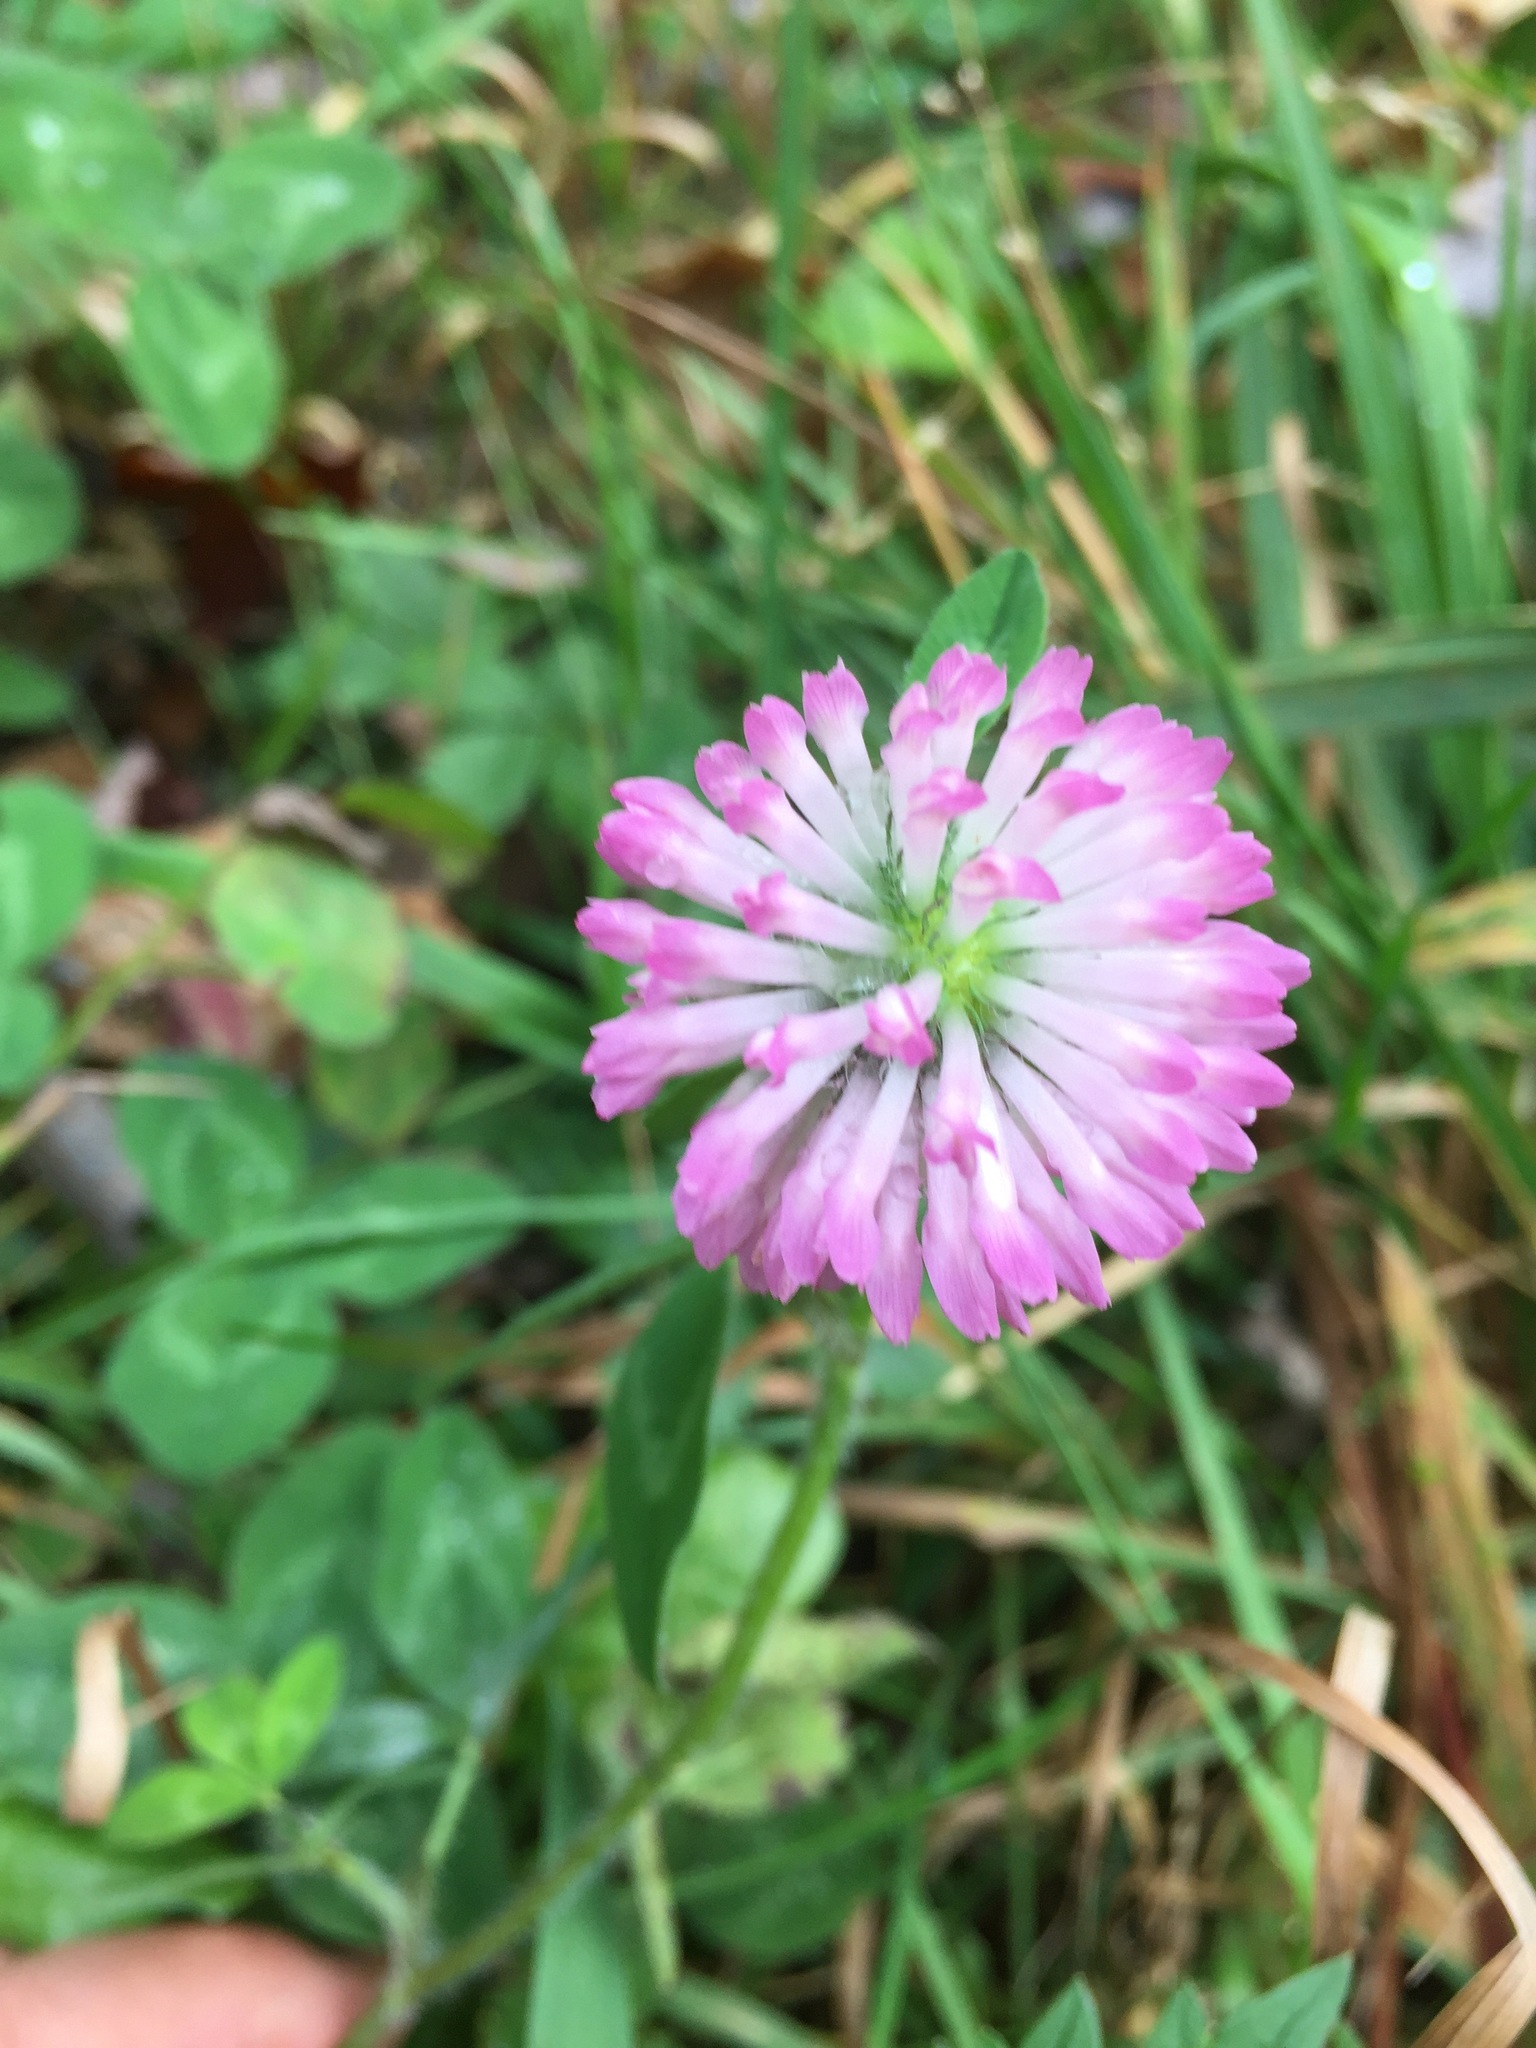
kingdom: Plantae
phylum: Tracheophyta
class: Magnoliopsida
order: Fabales
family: Fabaceae
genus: Trifolium
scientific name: Trifolium pratense
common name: Red clover
